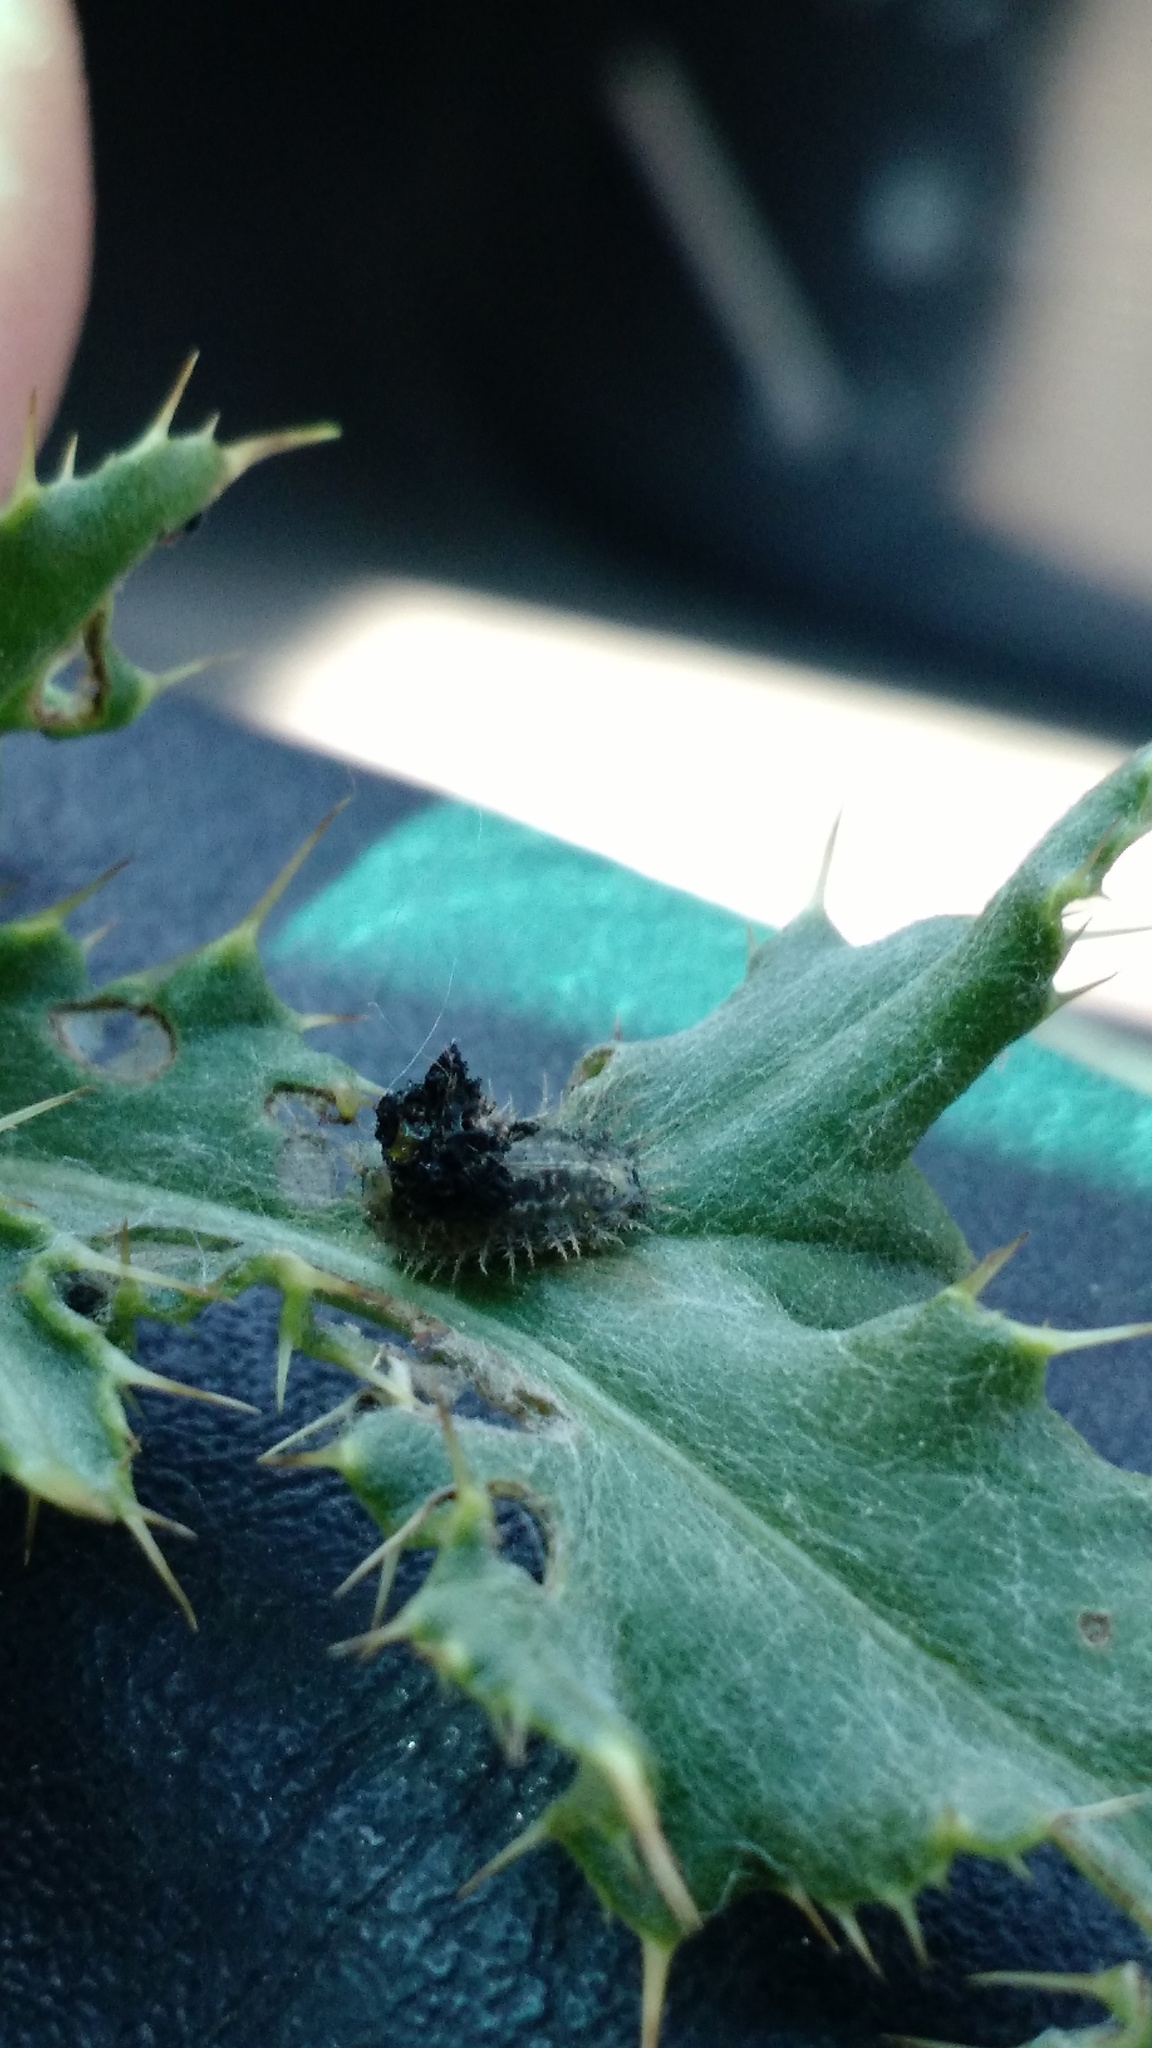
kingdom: Animalia
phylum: Arthropoda
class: Insecta
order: Coleoptera
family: Chrysomelidae
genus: Cassida
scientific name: Cassida rubiginosa
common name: Thistle tortoise beetle
